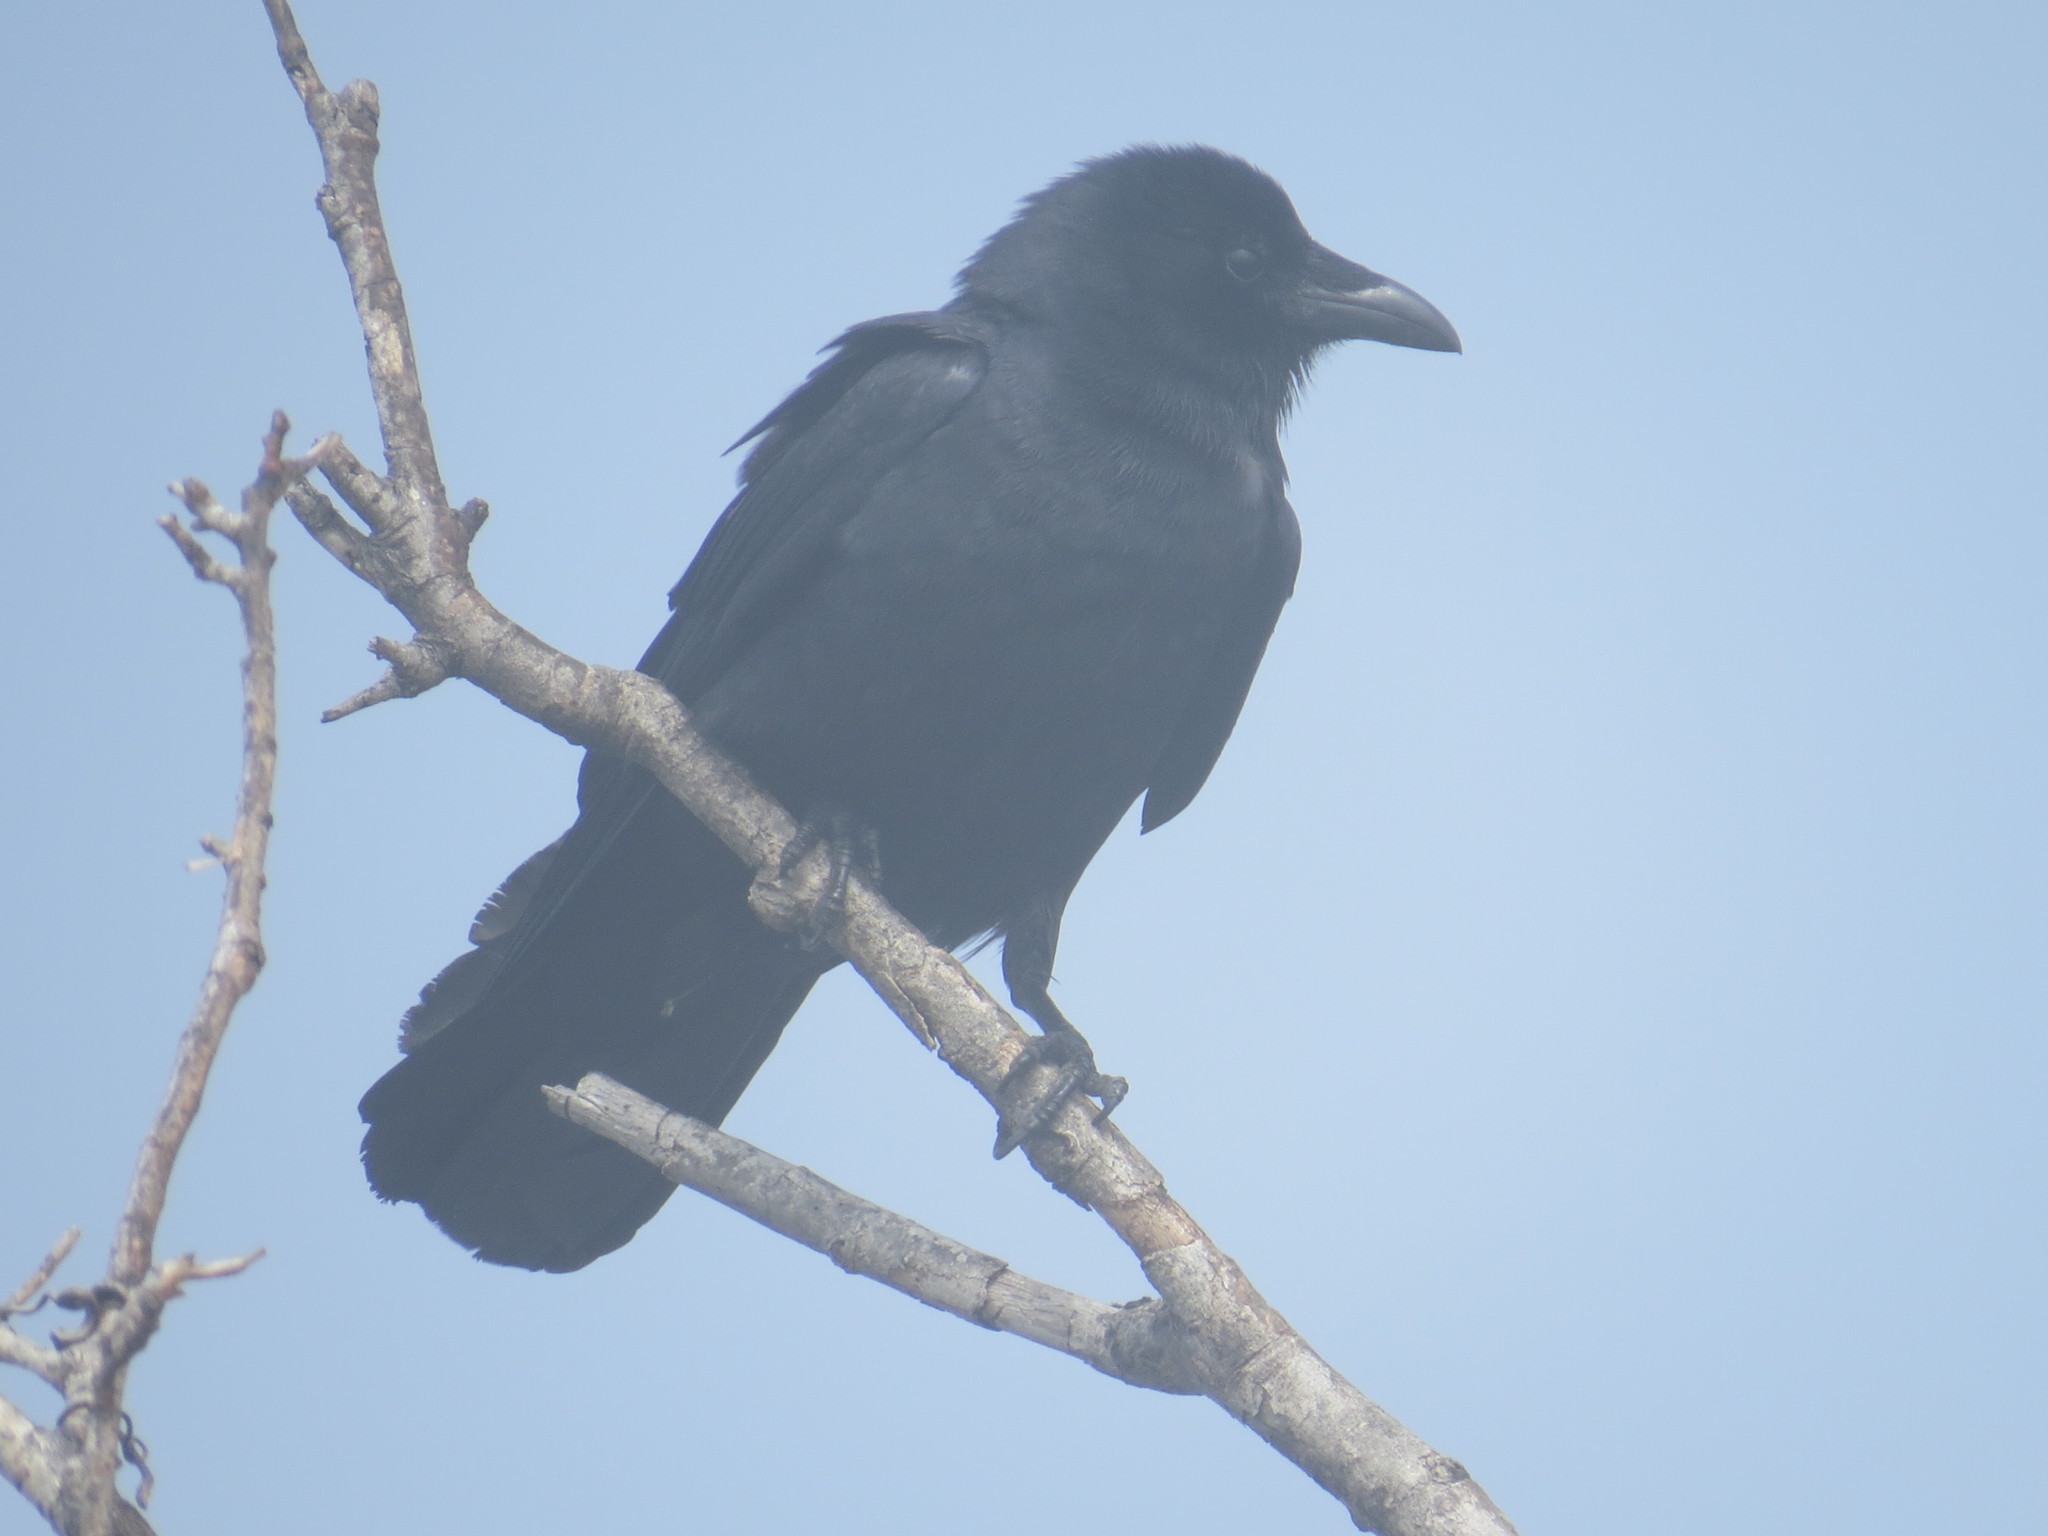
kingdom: Animalia
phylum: Chordata
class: Aves
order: Passeriformes
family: Corvidae
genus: Corvus
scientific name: Corvus ossifragus
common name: Fish crow
